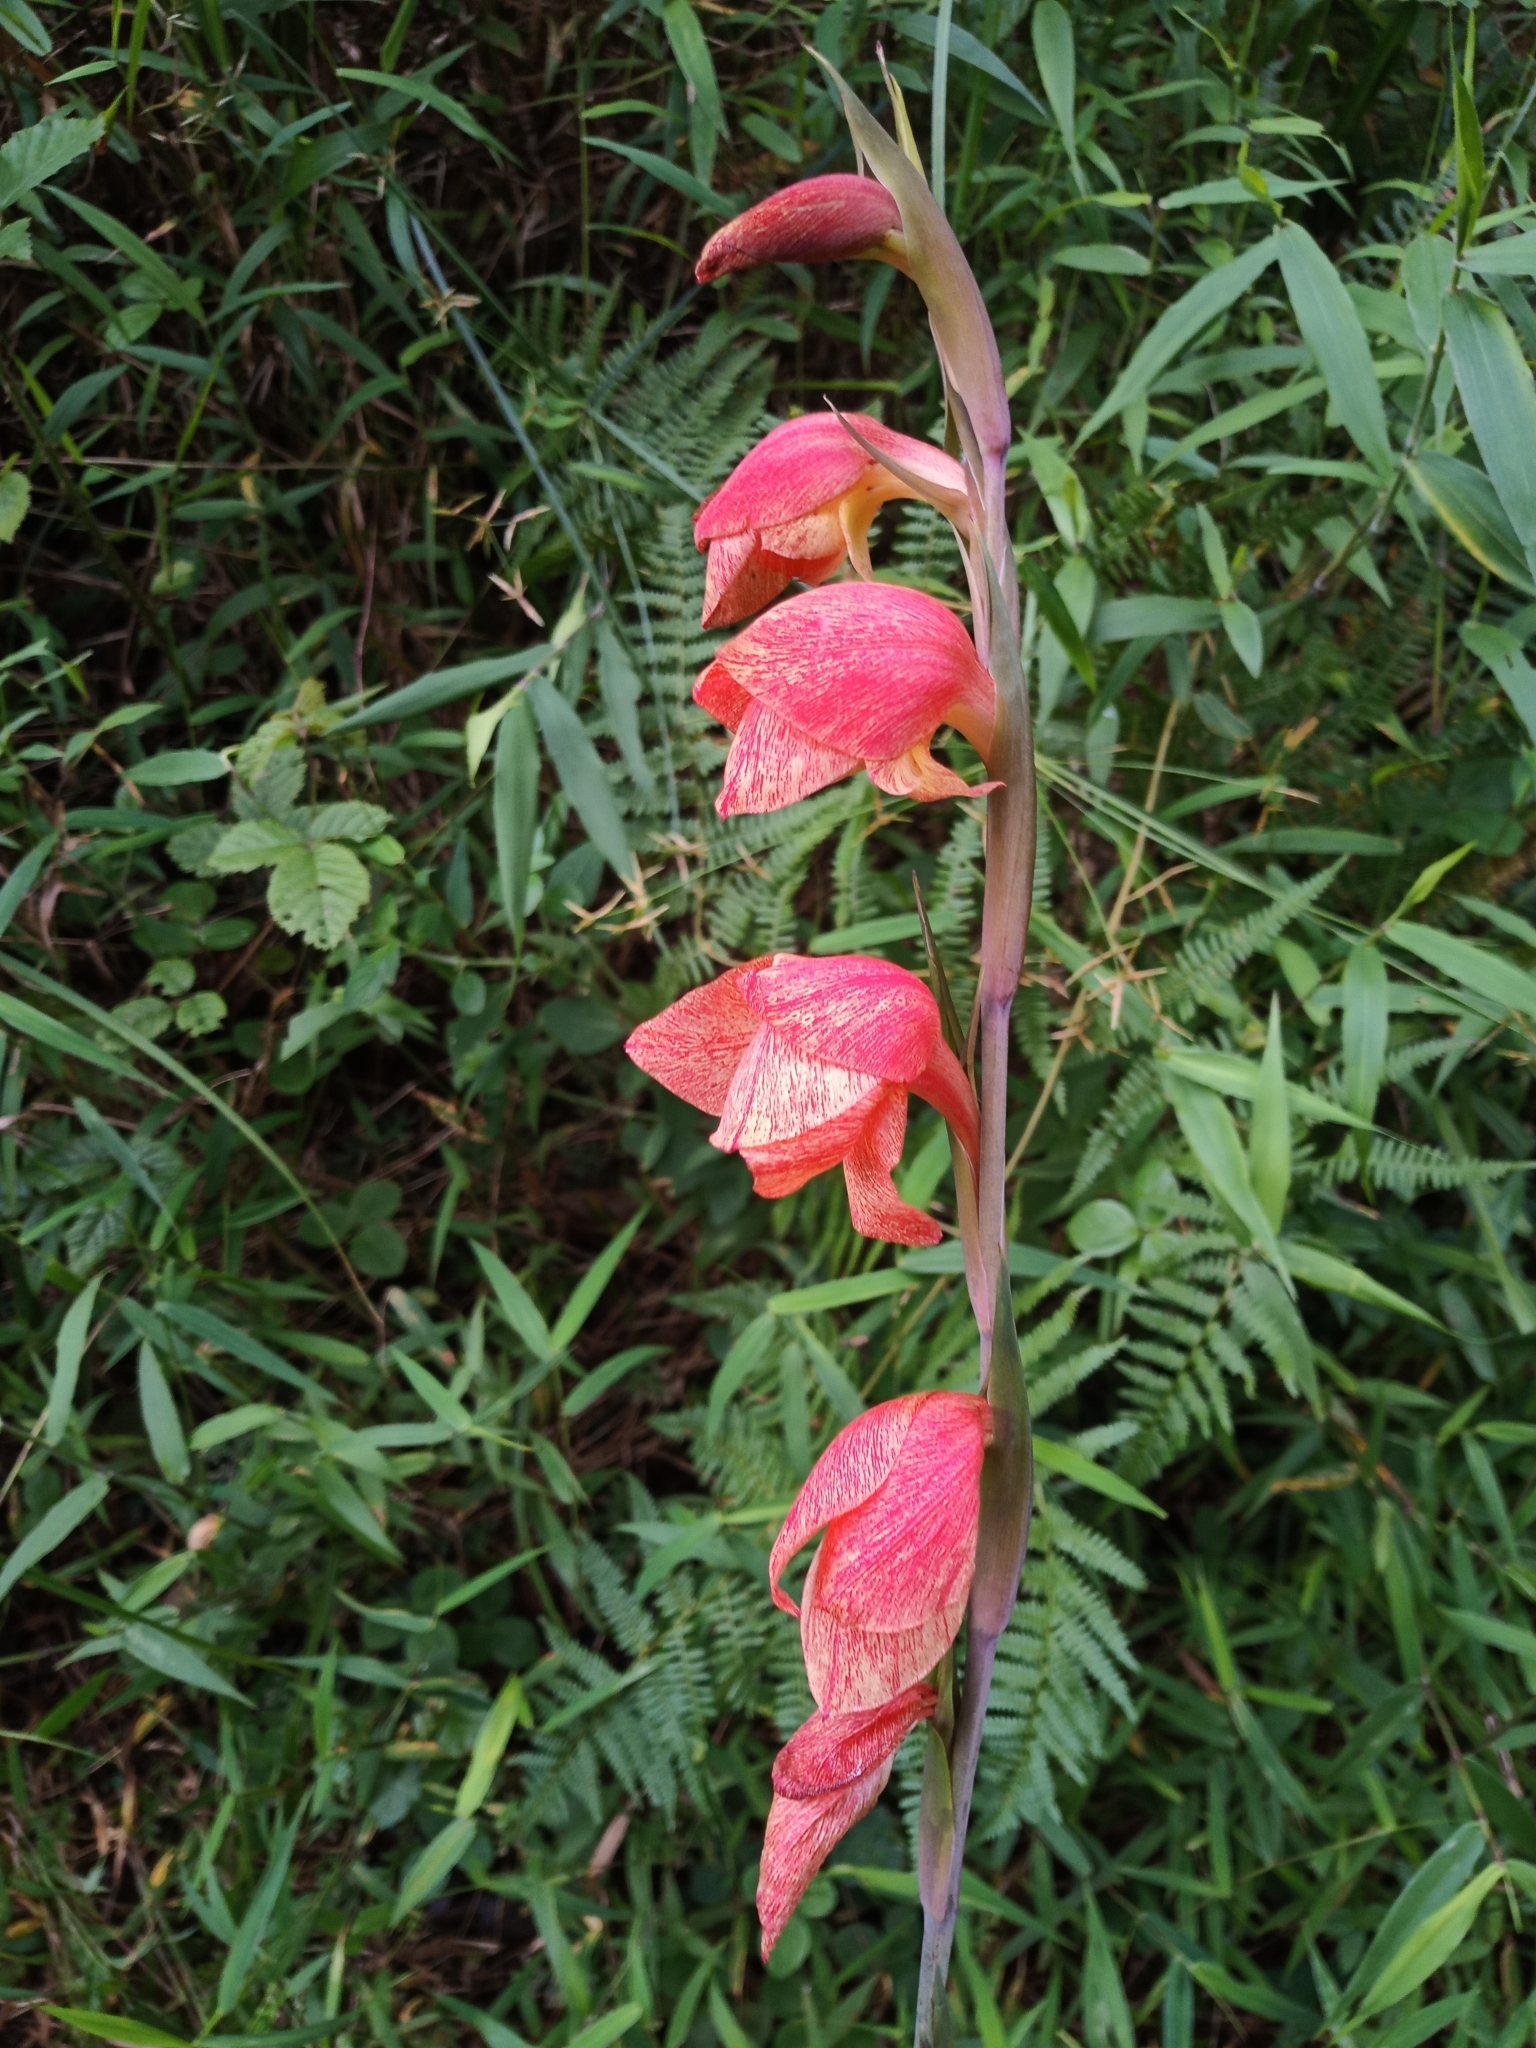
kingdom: Plantae
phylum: Tracheophyta
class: Liliopsida
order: Asparagales
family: Iridaceae
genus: Gladiolus
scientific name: Gladiolus dalenii
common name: Cornflag
